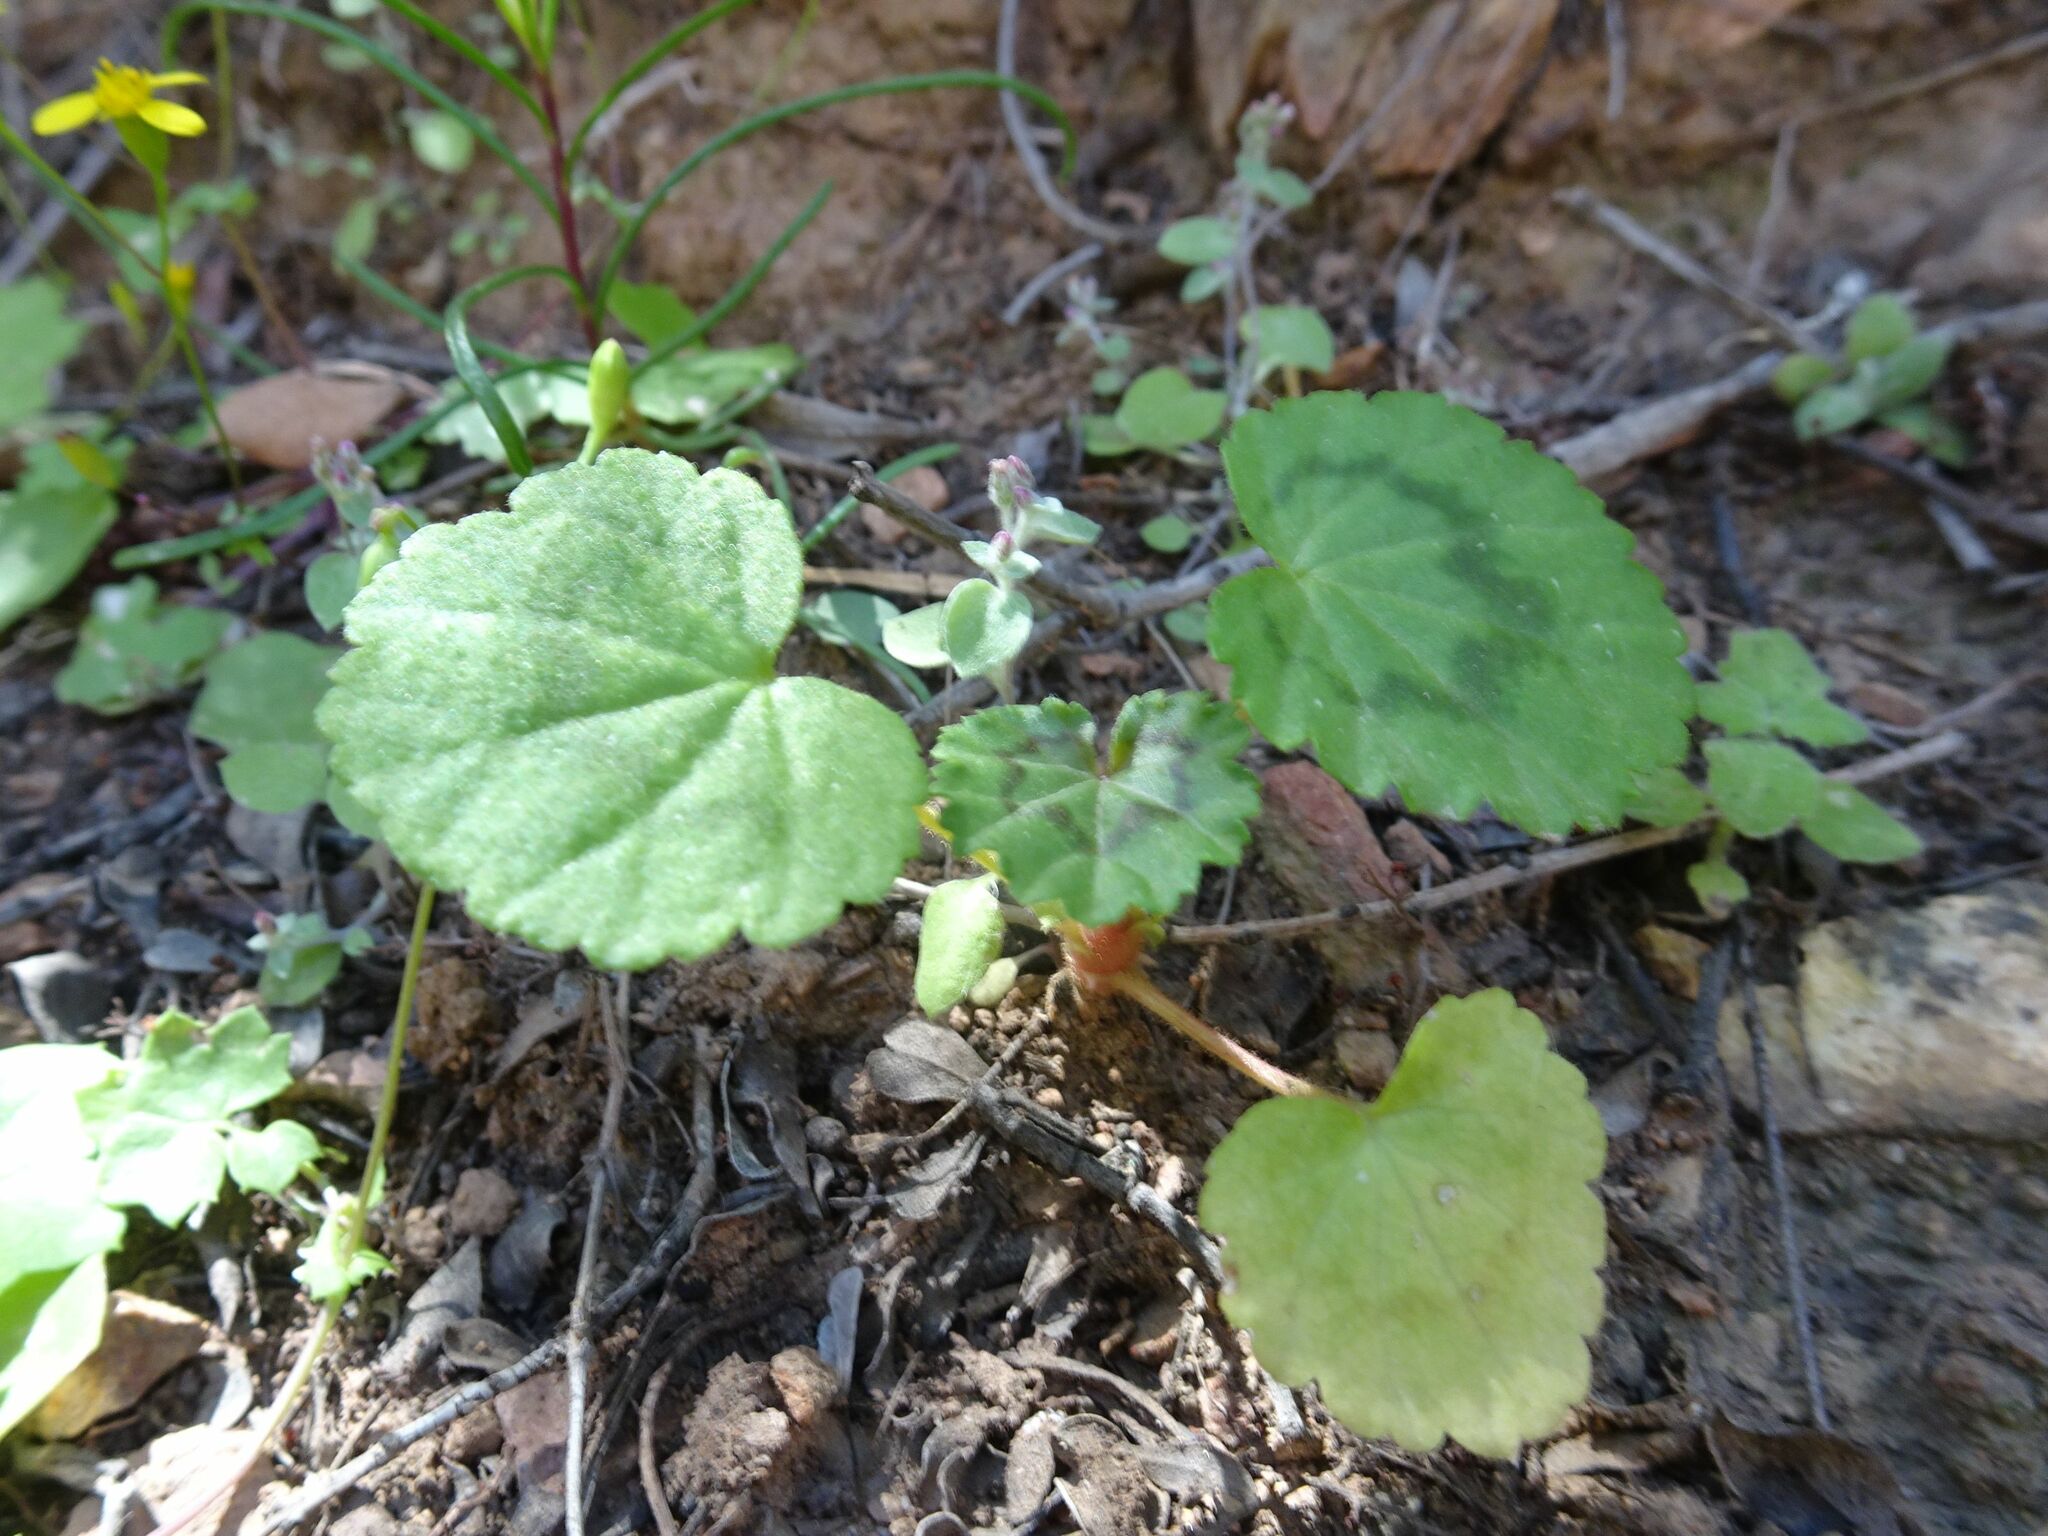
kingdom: Plantae
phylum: Tracheophyta
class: Magnoliopsida
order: Geraniales
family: Geraniaceae
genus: Pelargonium
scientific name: Pelargonium zonale
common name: Horseshoe geranium
